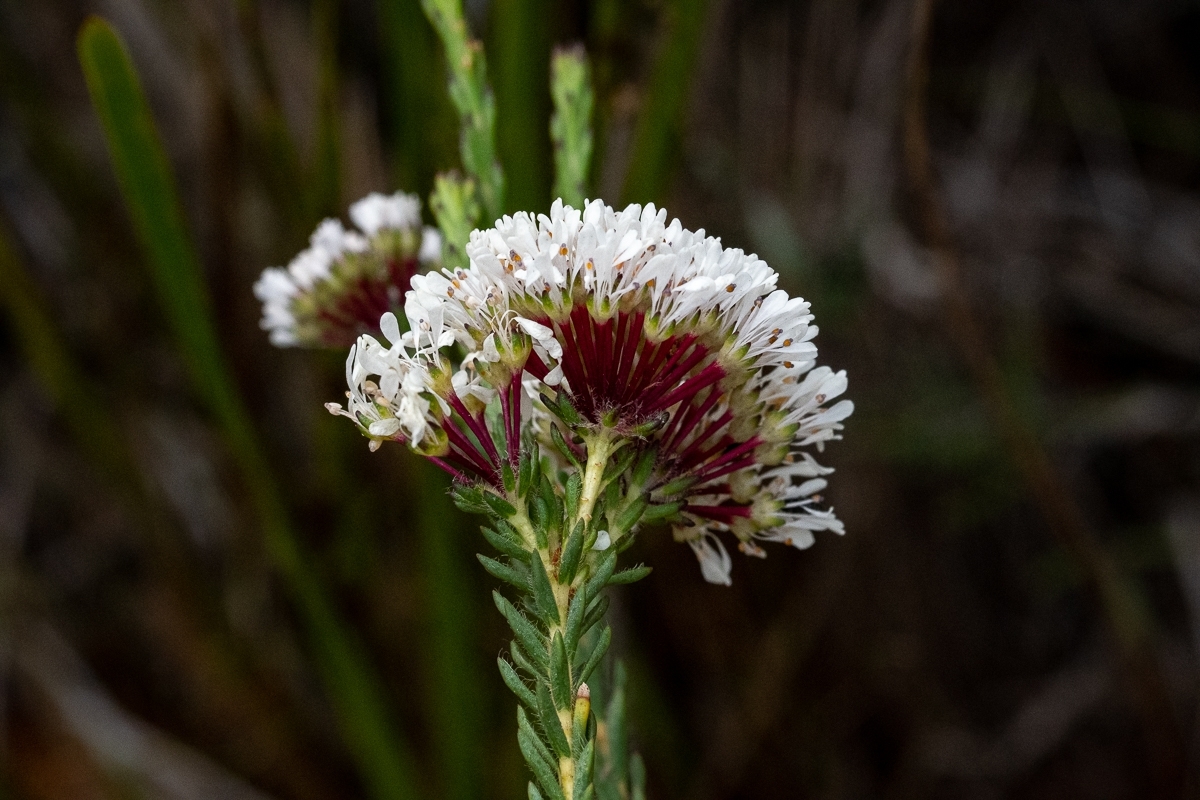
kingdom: Plantae
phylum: Tracheophyta
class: Magnoliopsida
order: Sapindales
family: Rutaceae
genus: Agathosma
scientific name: Agathosma bifida
